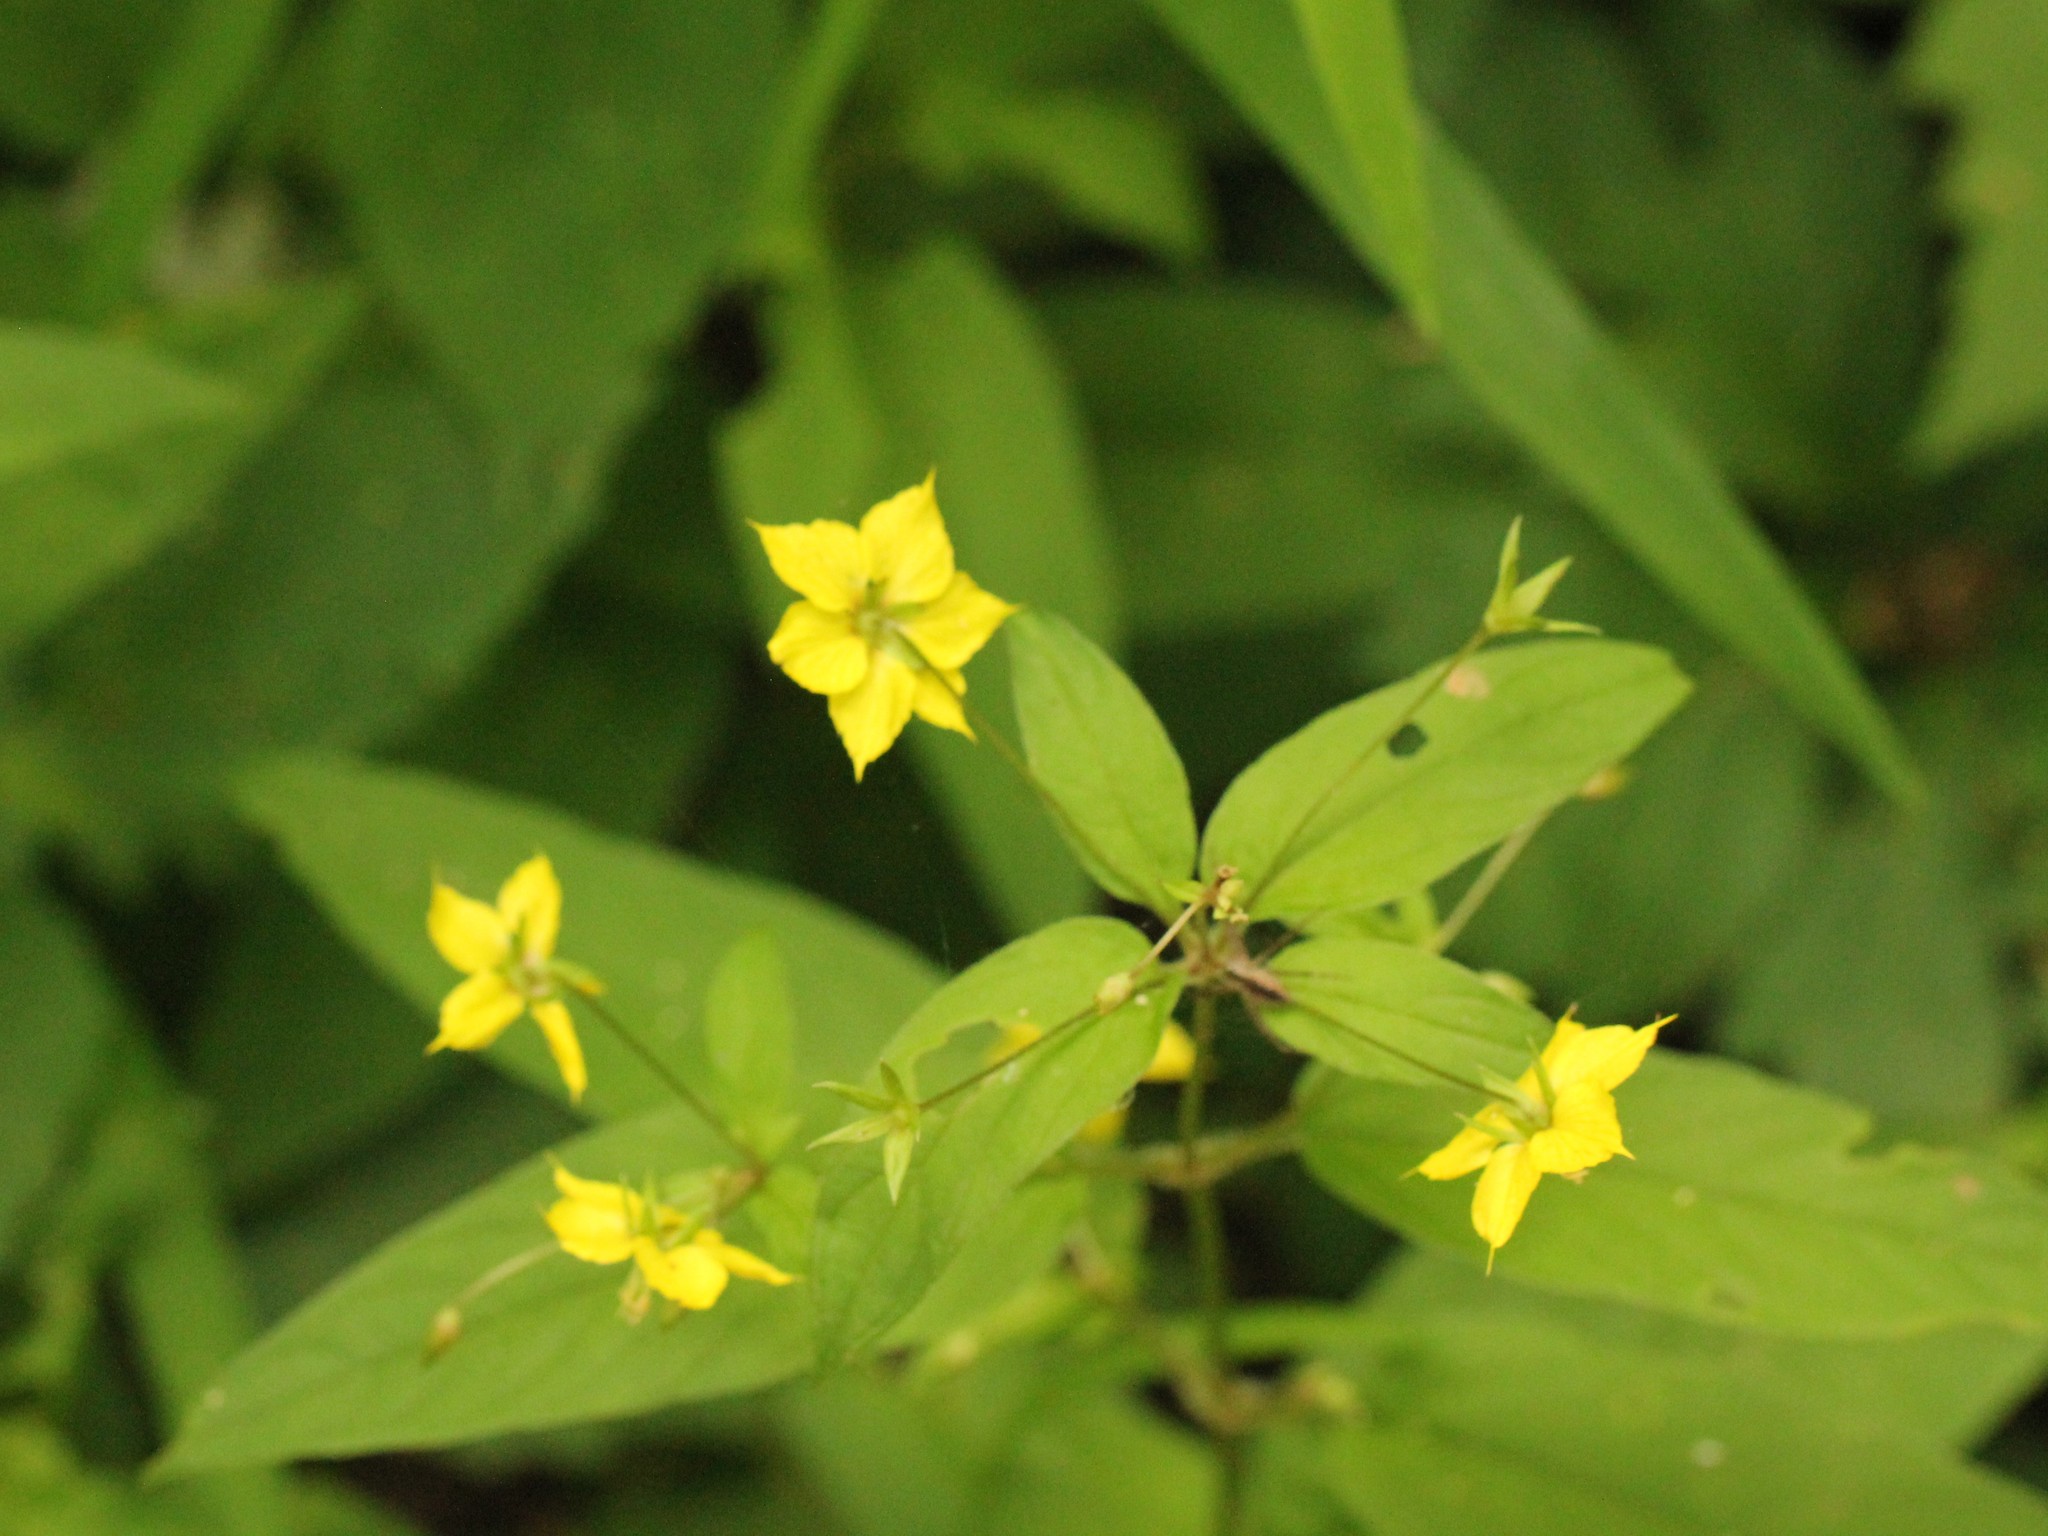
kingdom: Plantae
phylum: Tracheophyta
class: Magnoliopsida
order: Ericales
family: Primulaceae
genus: Lysimachia
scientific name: Lysimachia ciliata
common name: Fringed loosestrife
